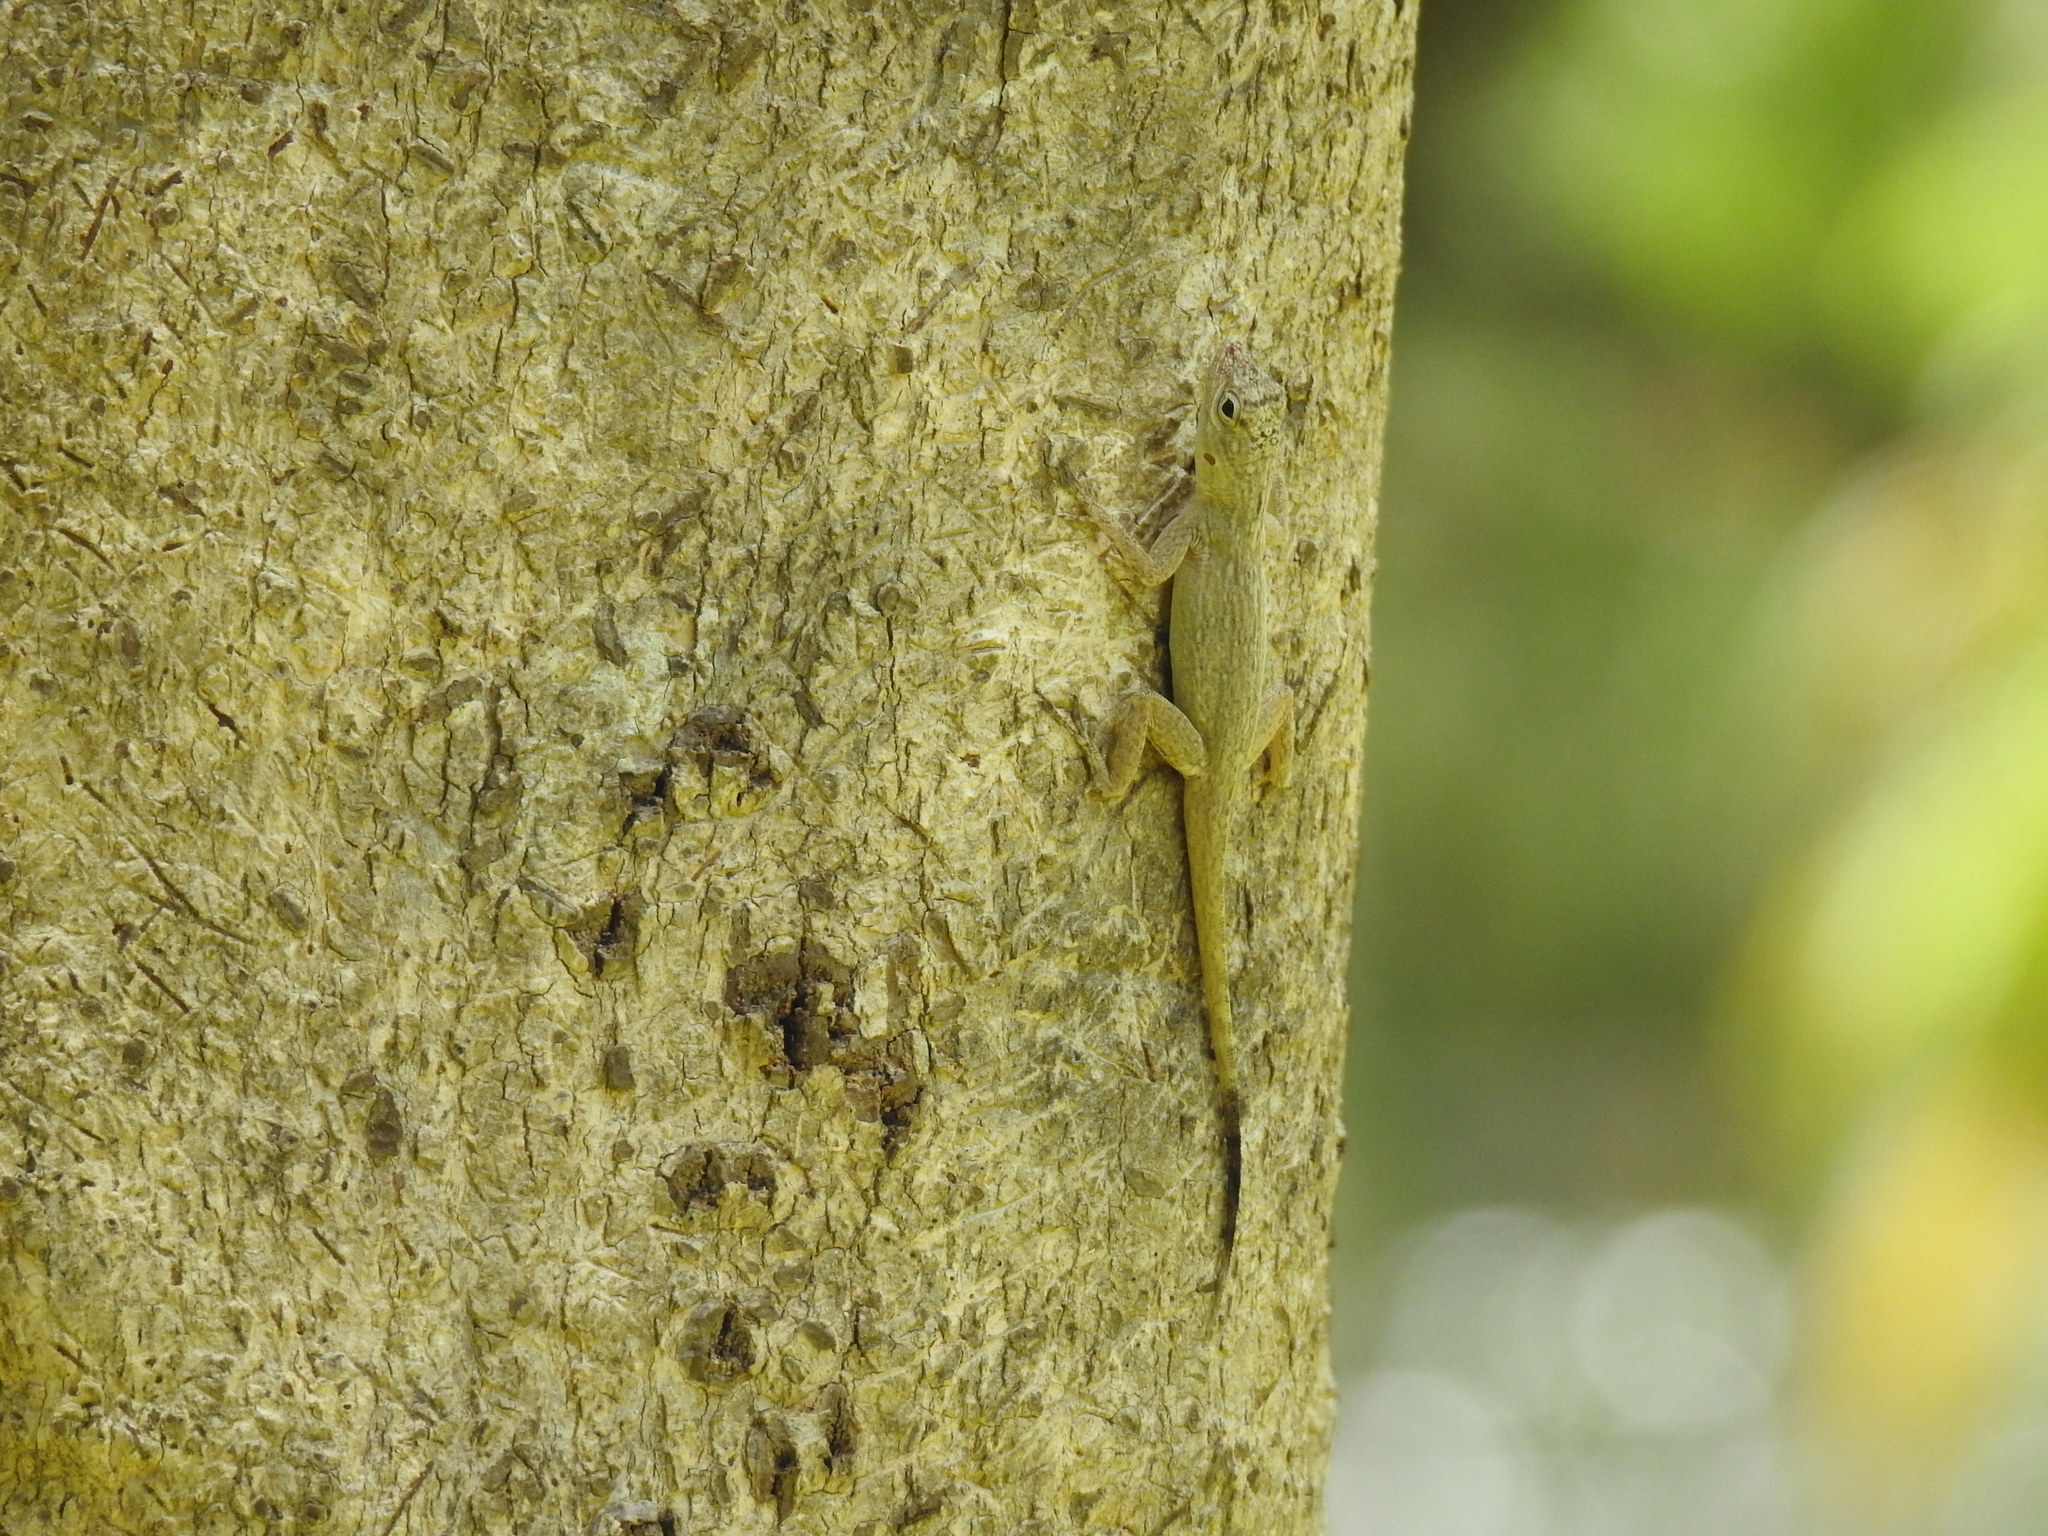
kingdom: Animalia
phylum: Chordata
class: Squamata
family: Dactyloidae
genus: Anolis
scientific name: Anolis distichus
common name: Bark anole
